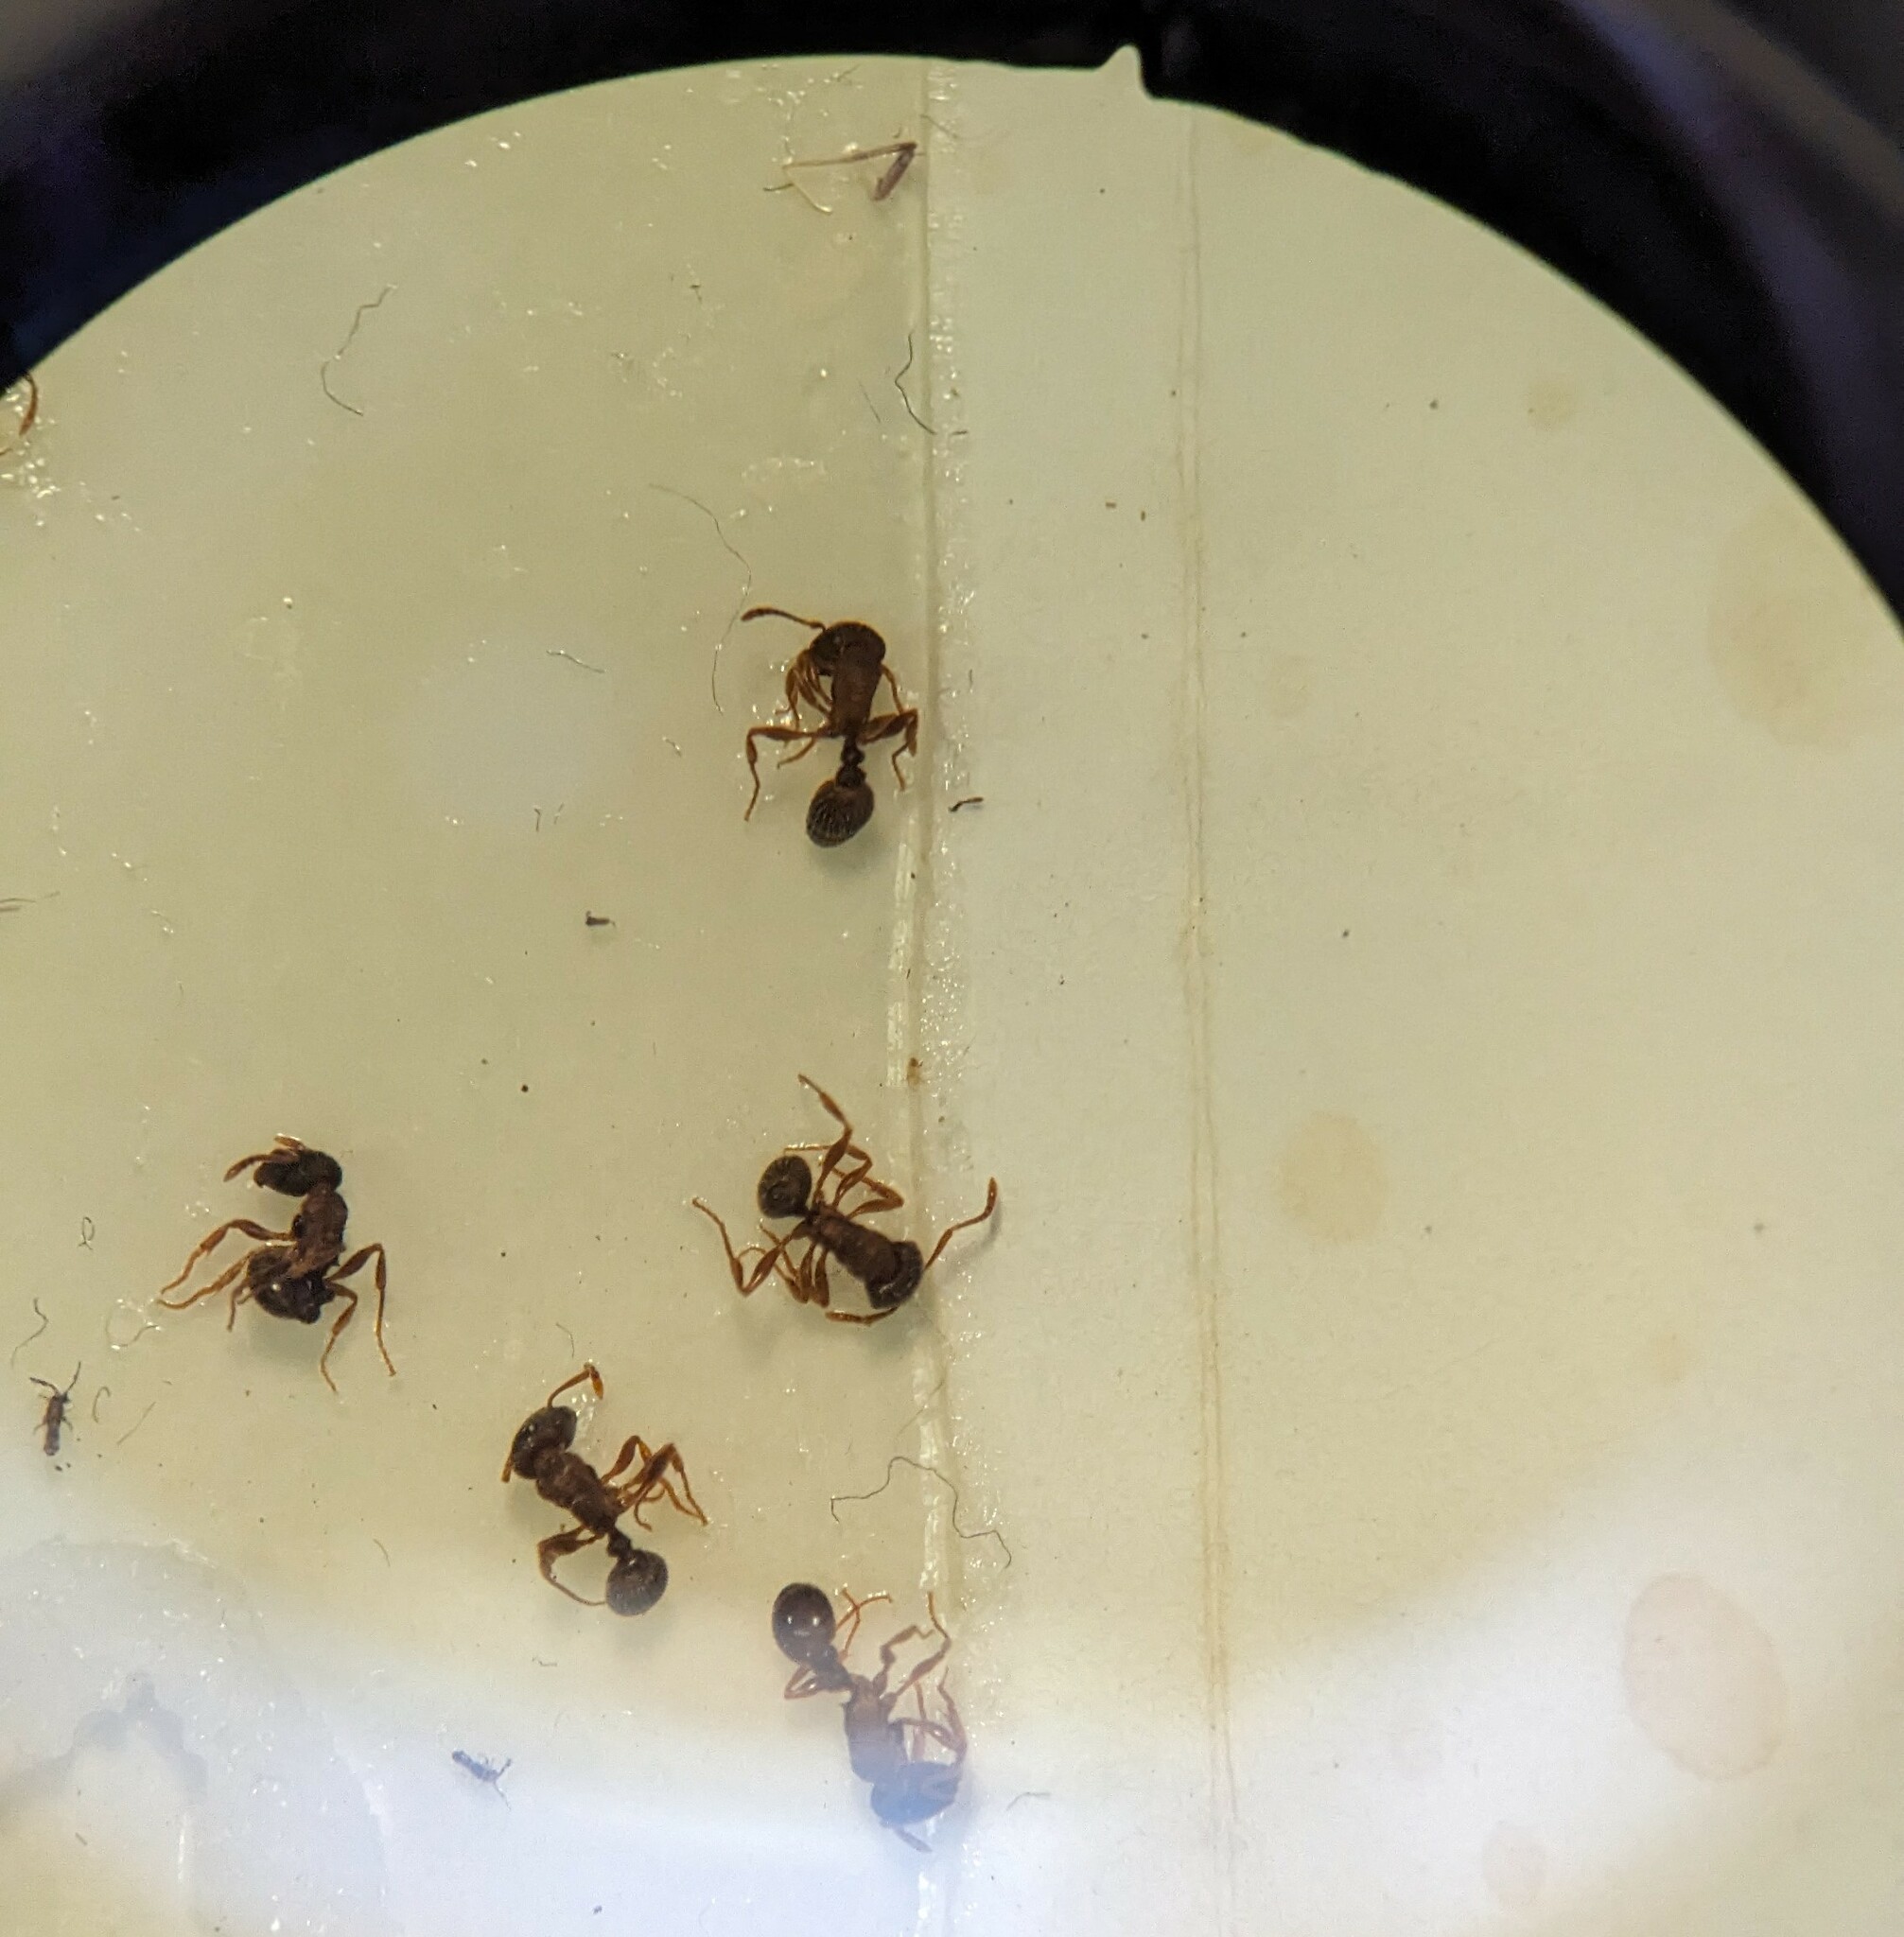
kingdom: Animalia
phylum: Arthropoda
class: Insecta
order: Hymenoptera
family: Formicidae
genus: Tetramorium
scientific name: Tetramorium immigrans
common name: Pavement ant
